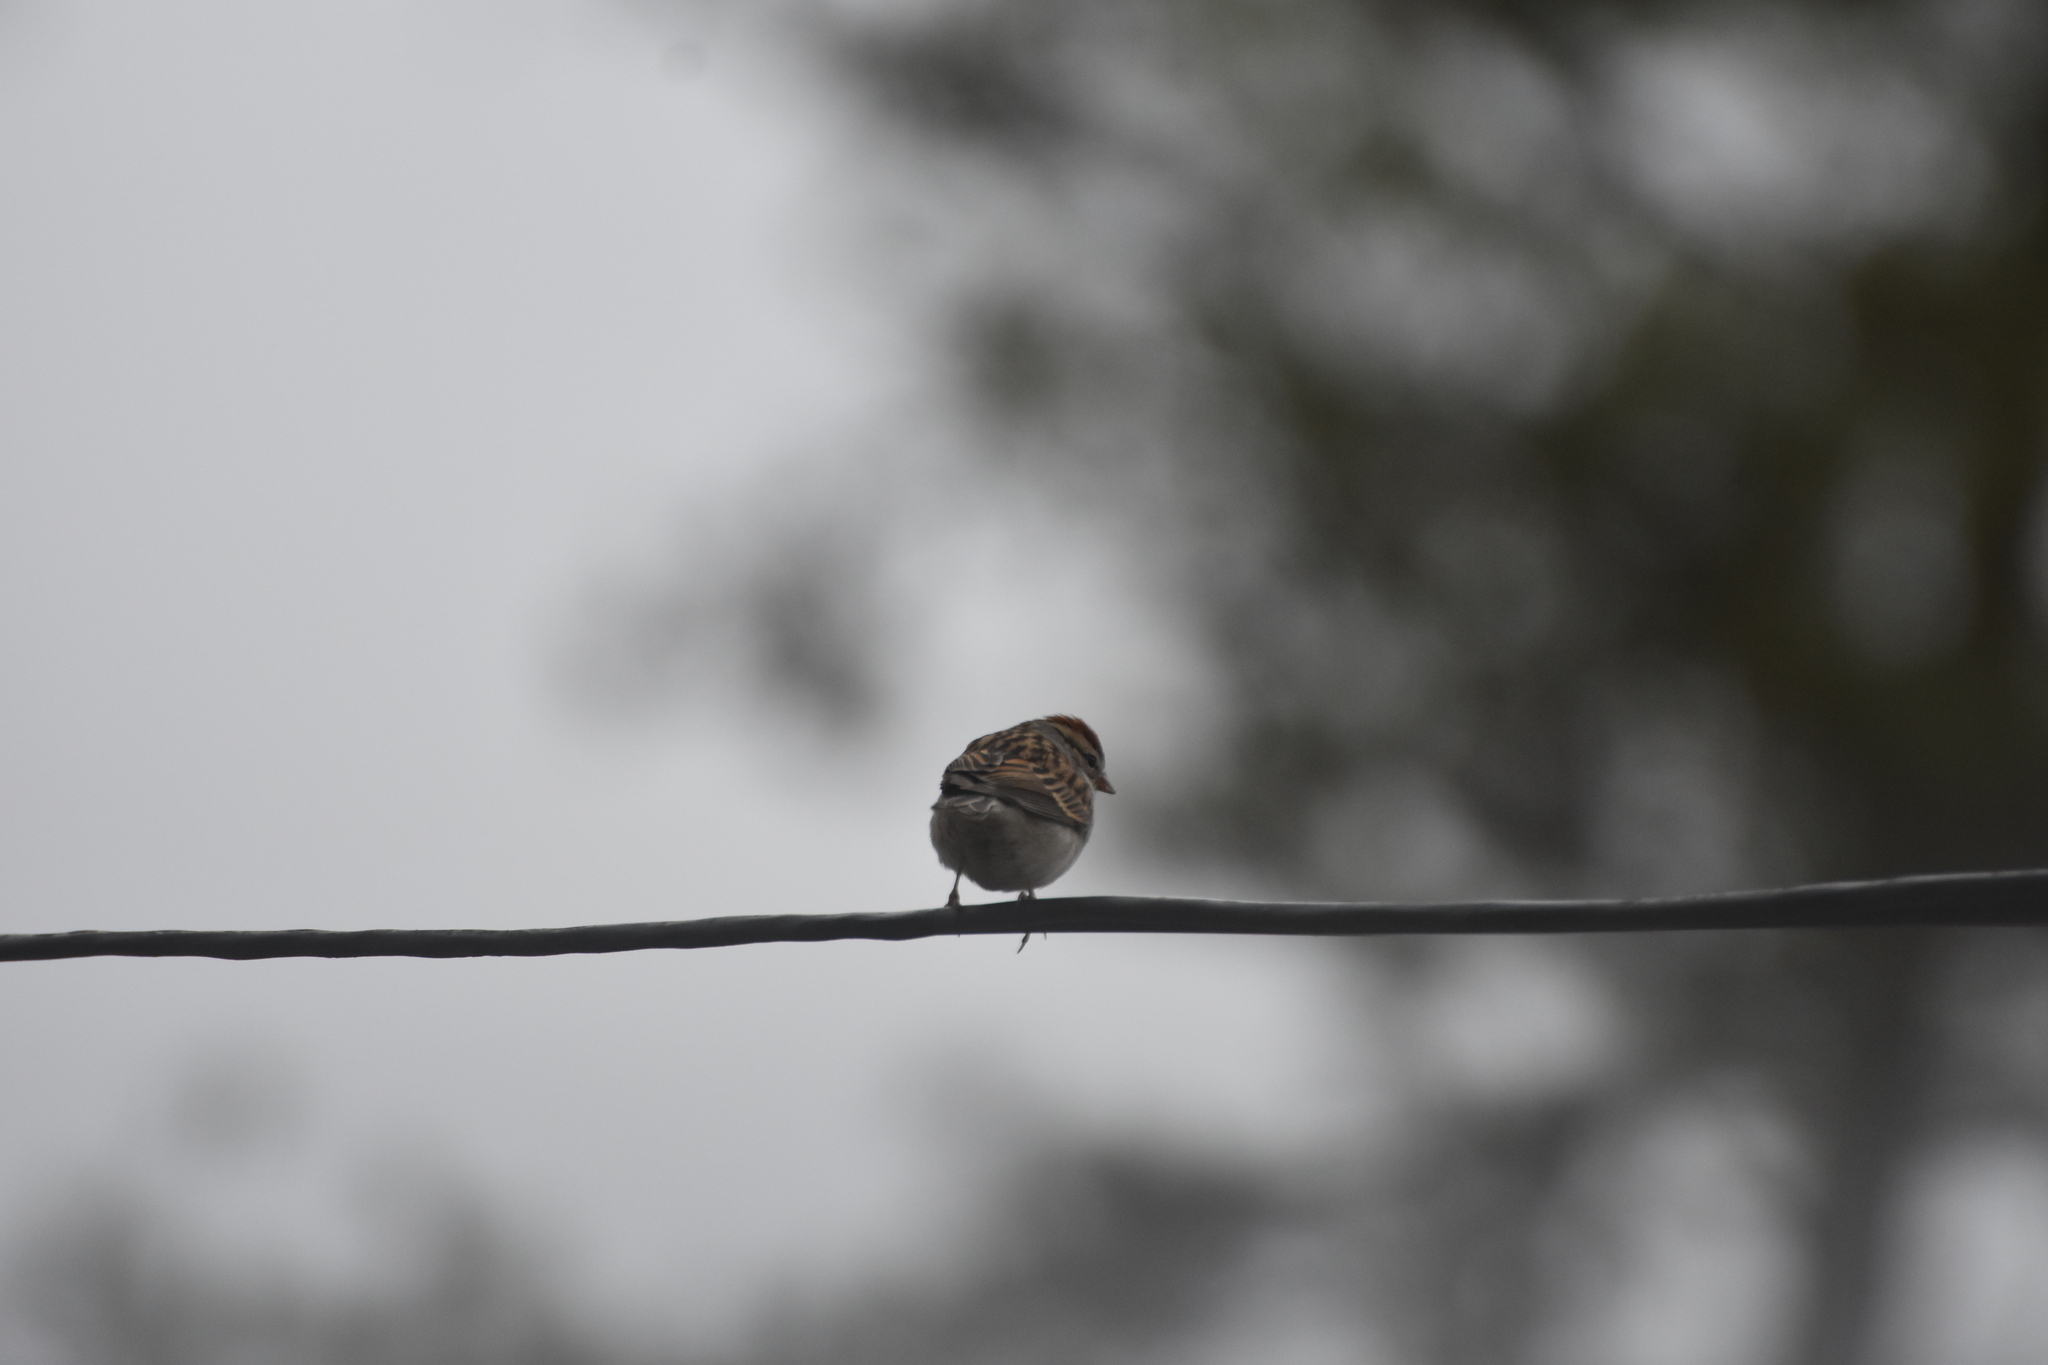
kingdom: Animalia
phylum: Chordata
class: Aves
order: Passeriformes
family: Passerellidae
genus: Spizella
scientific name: Spizella passerina
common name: Chipping sparrow
